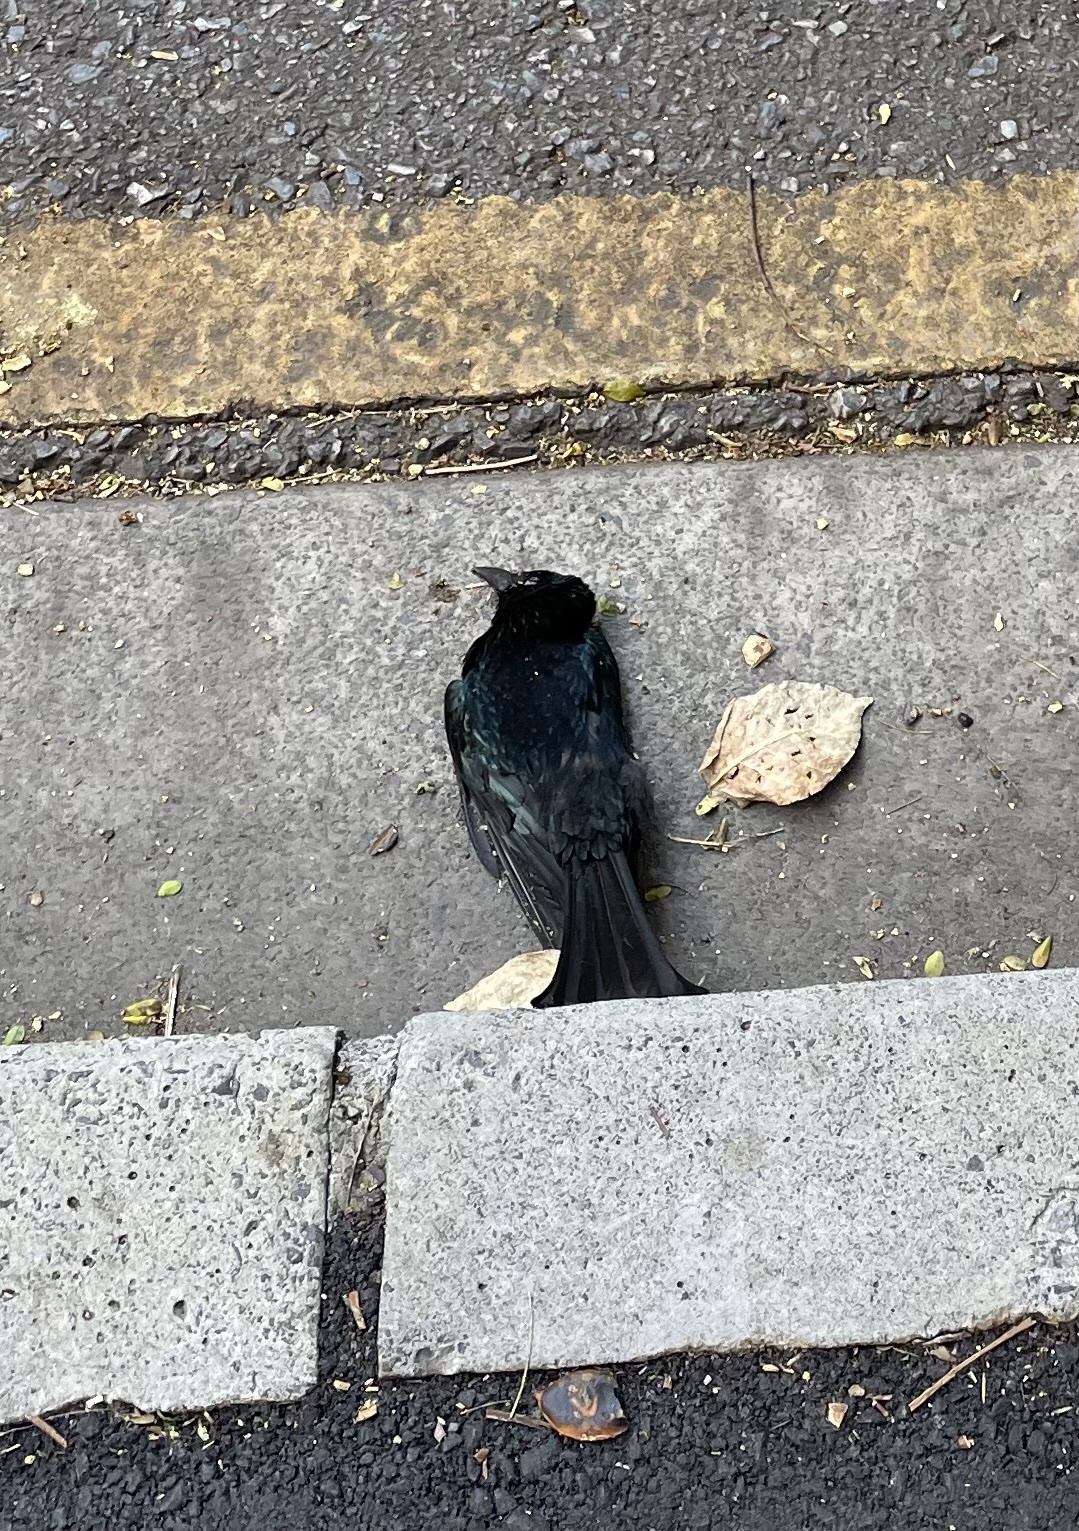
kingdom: Animalia
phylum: Chordata
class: Aves
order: Passeriformes
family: Dicruridae
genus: Dicrurus
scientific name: Dicrurus bracteatus
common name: Spangled drongo
